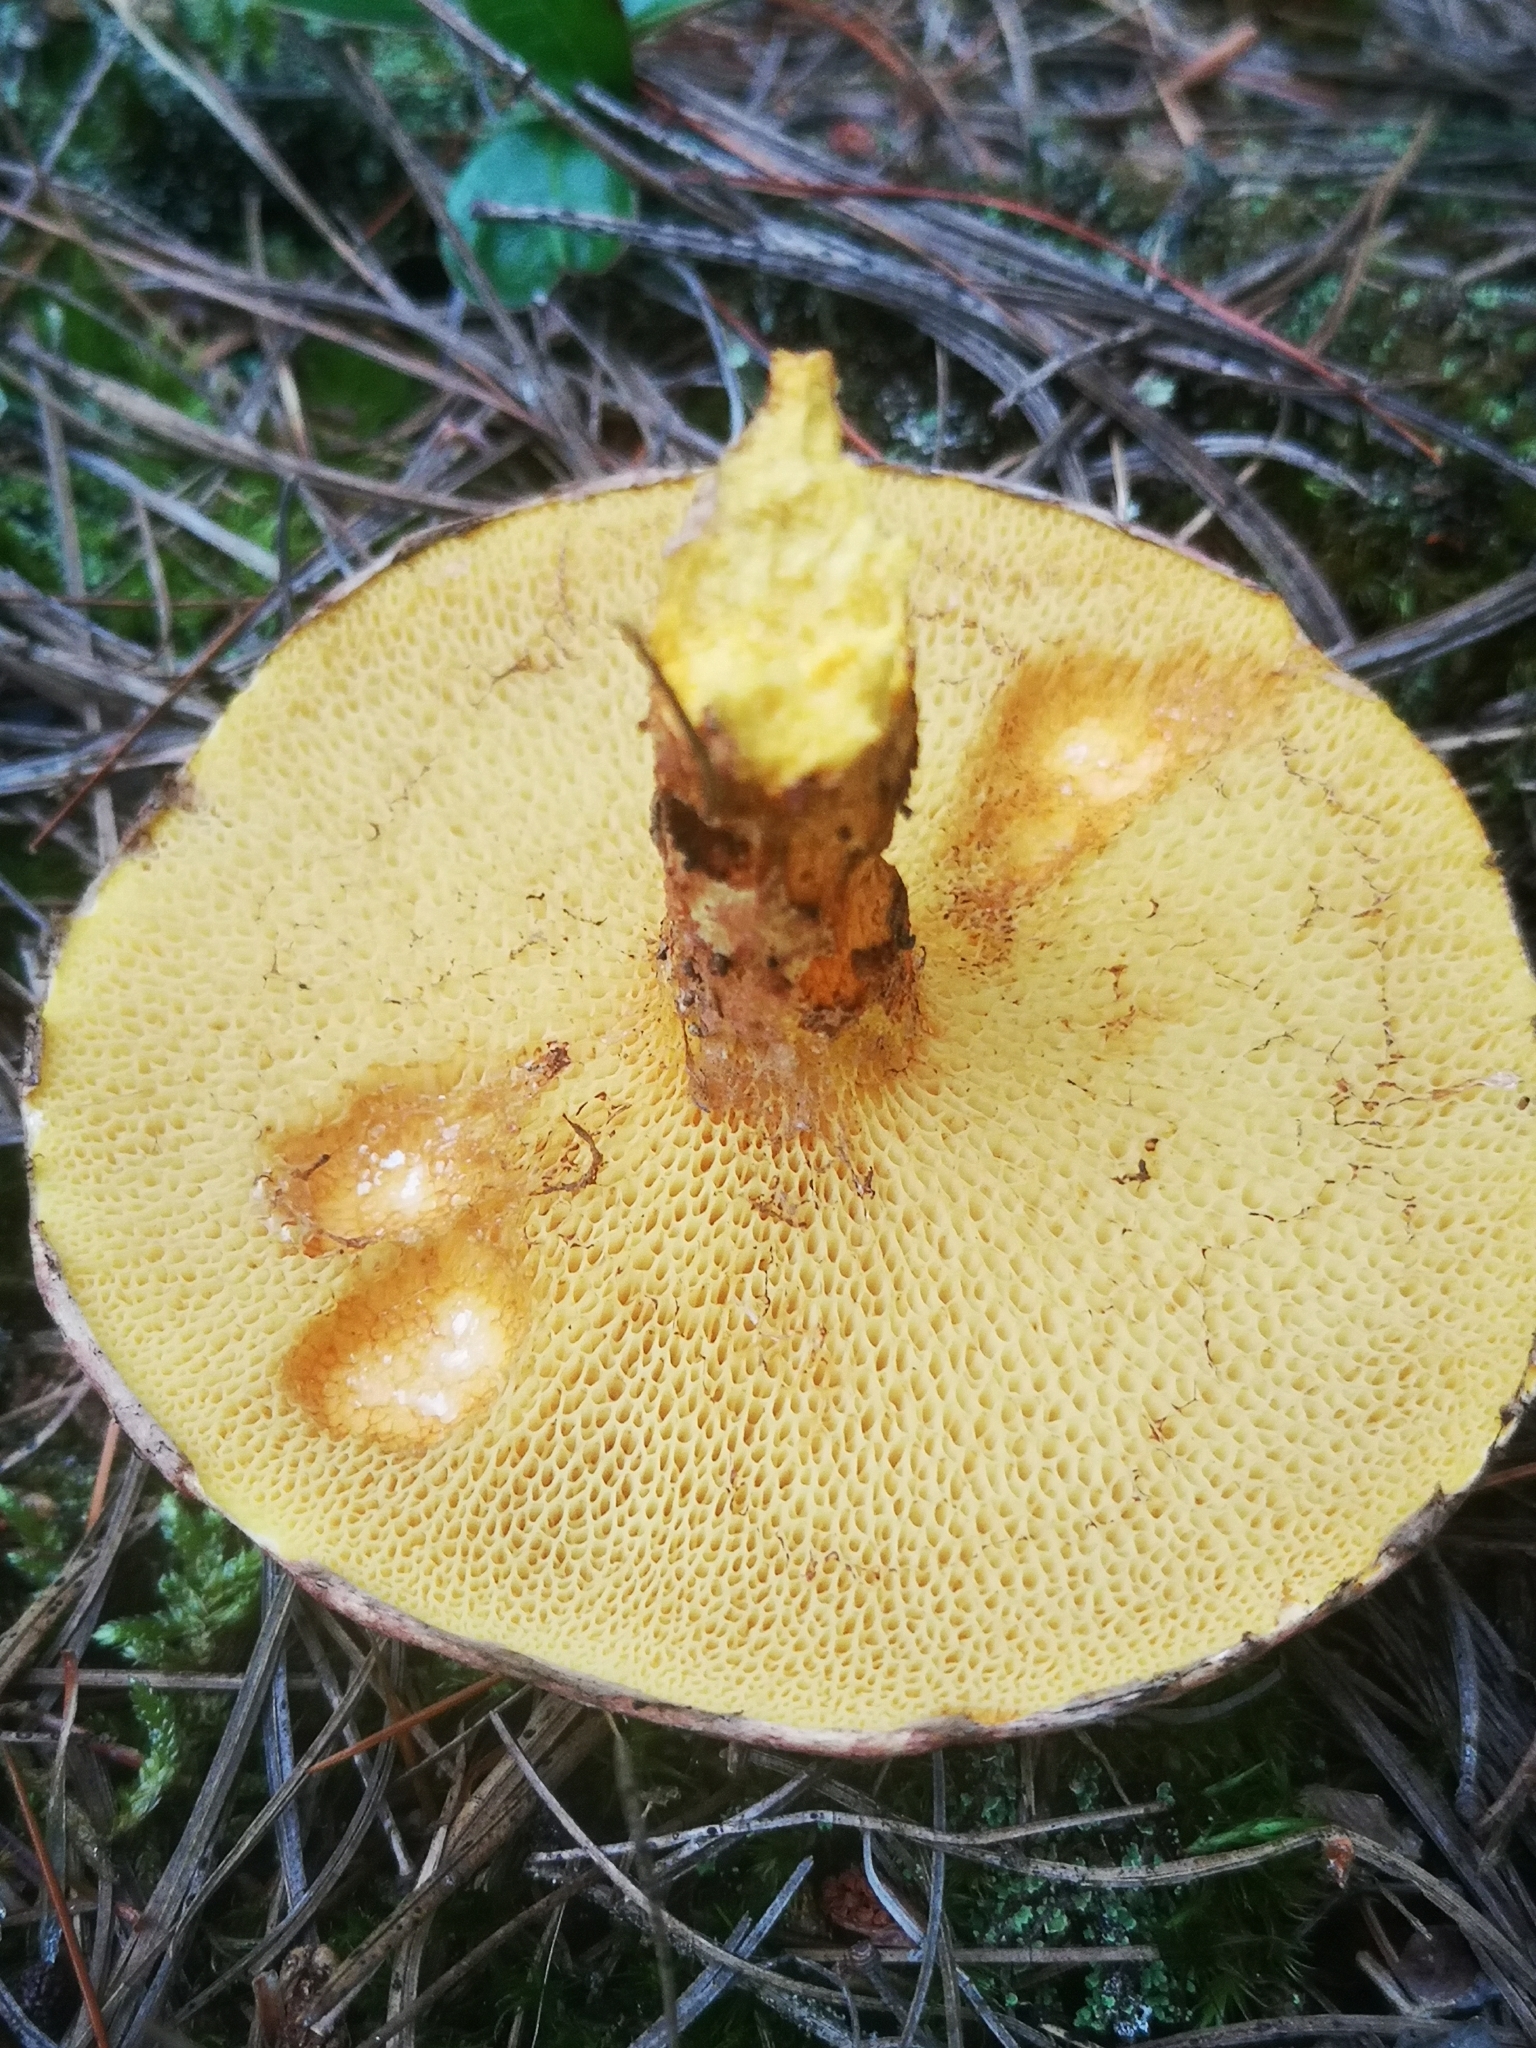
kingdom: Fungi
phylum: Basidiomycota
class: Agaricomycetes
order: Boletales
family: Suillaceae
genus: Suillus
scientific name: Suillus spraguei
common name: Painted suillus
